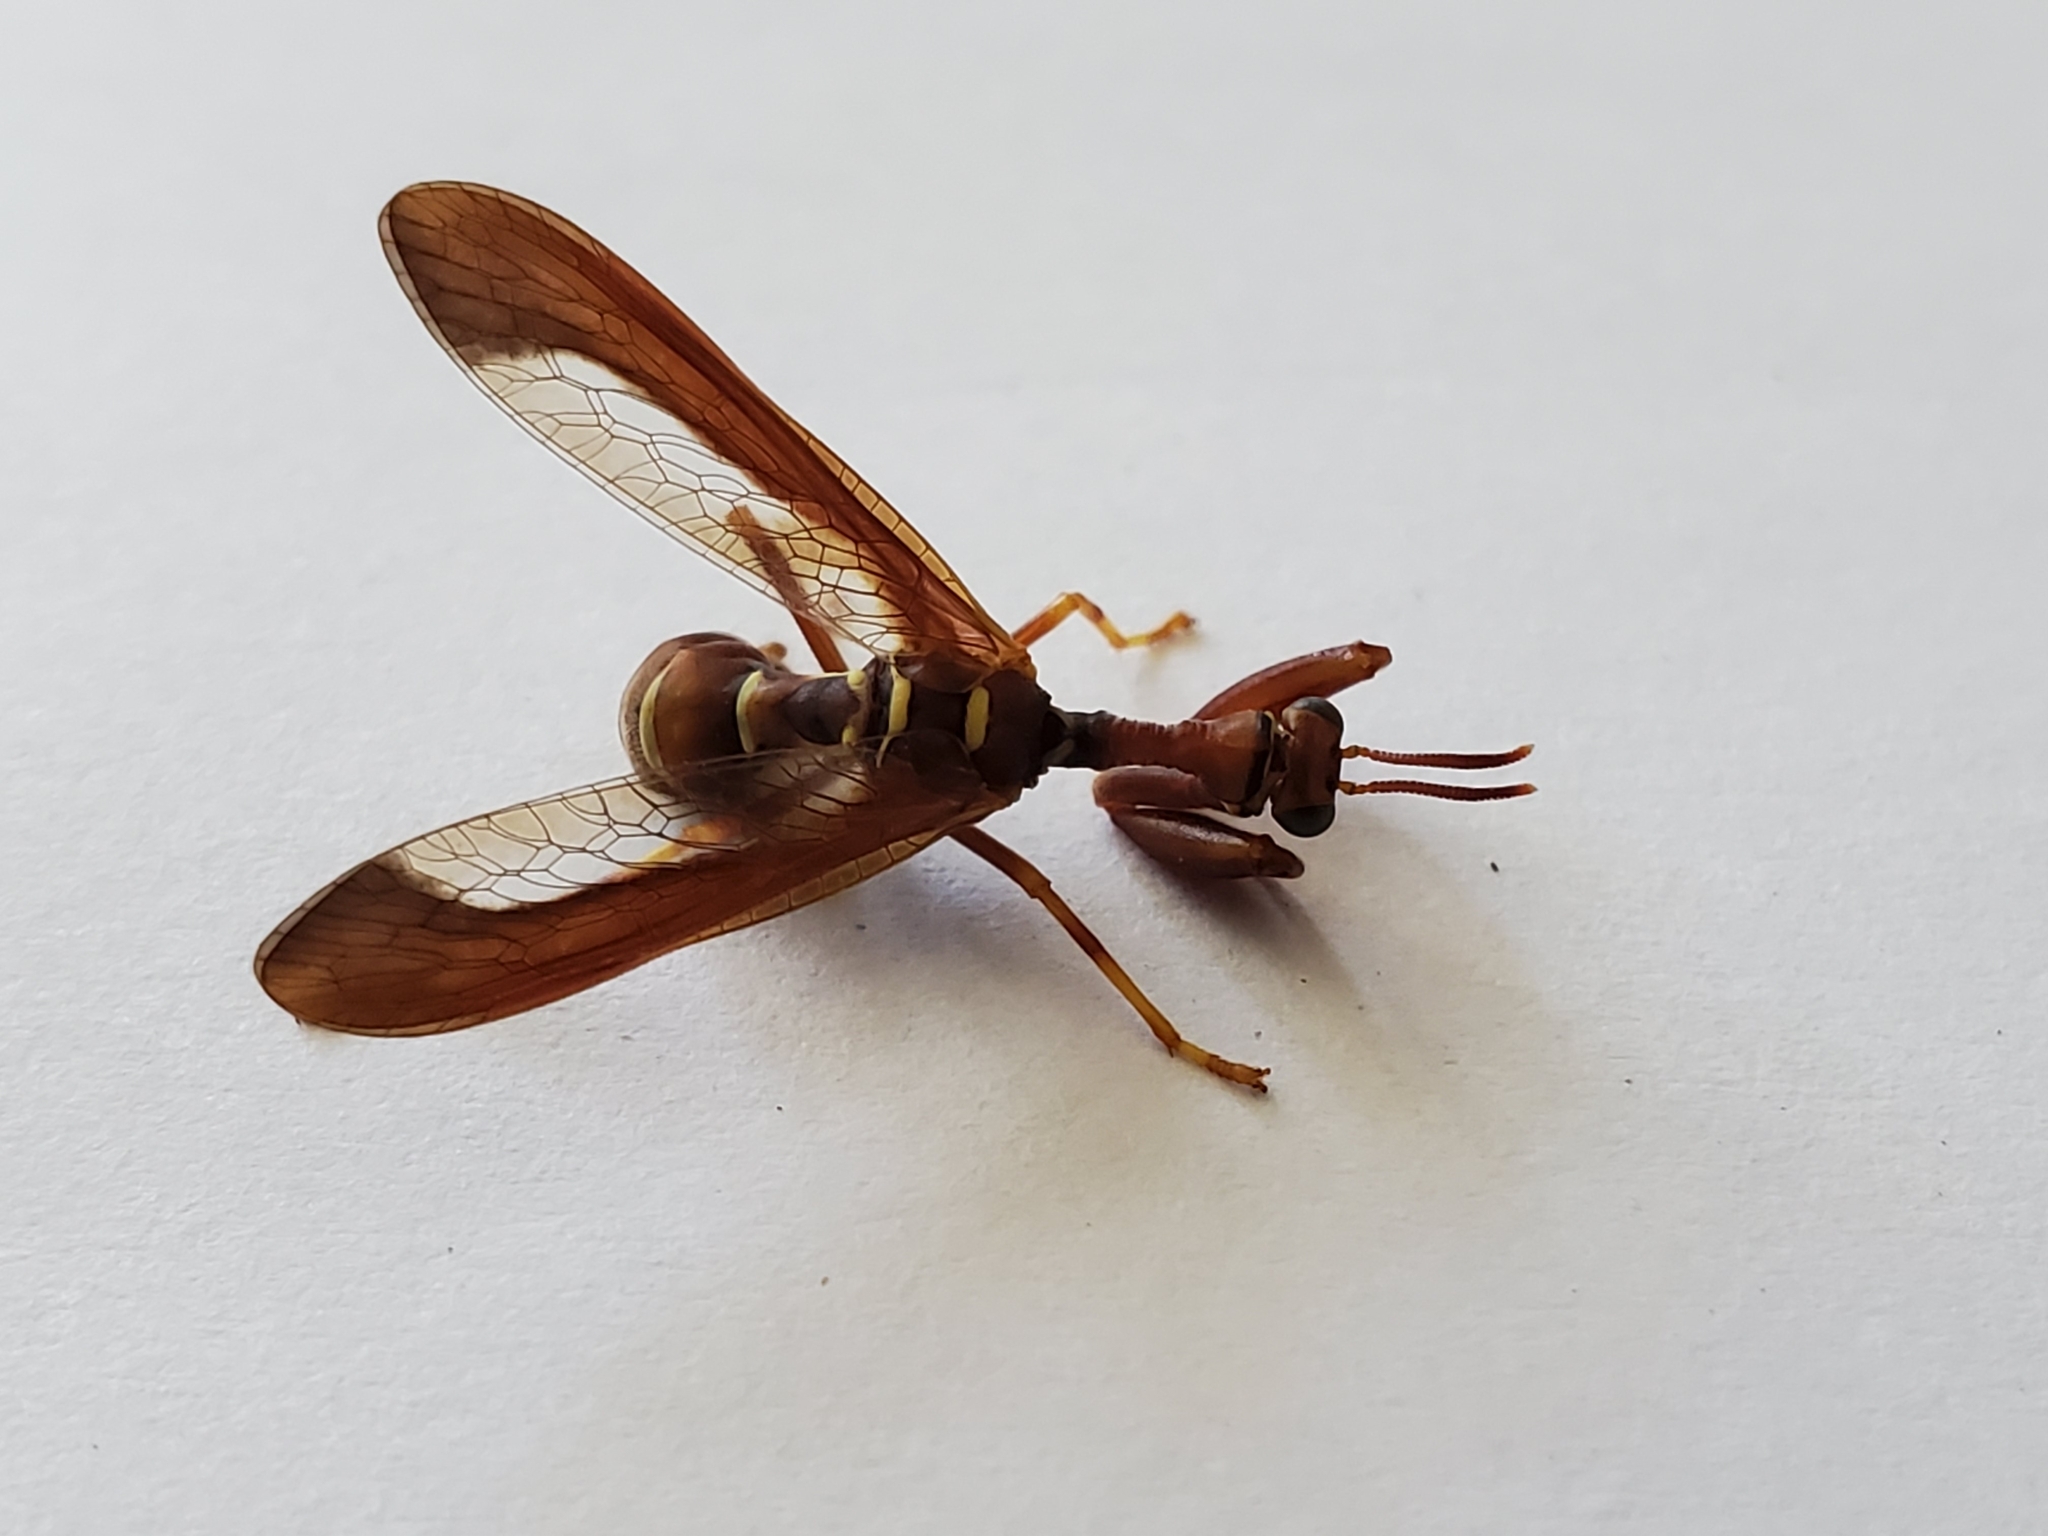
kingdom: Animalia
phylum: Arthropoda
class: Insecta
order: Neuroptera
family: Mantispidae
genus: Climaciella
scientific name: Climaciella brunnea
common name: Brown wasp mantidfly
